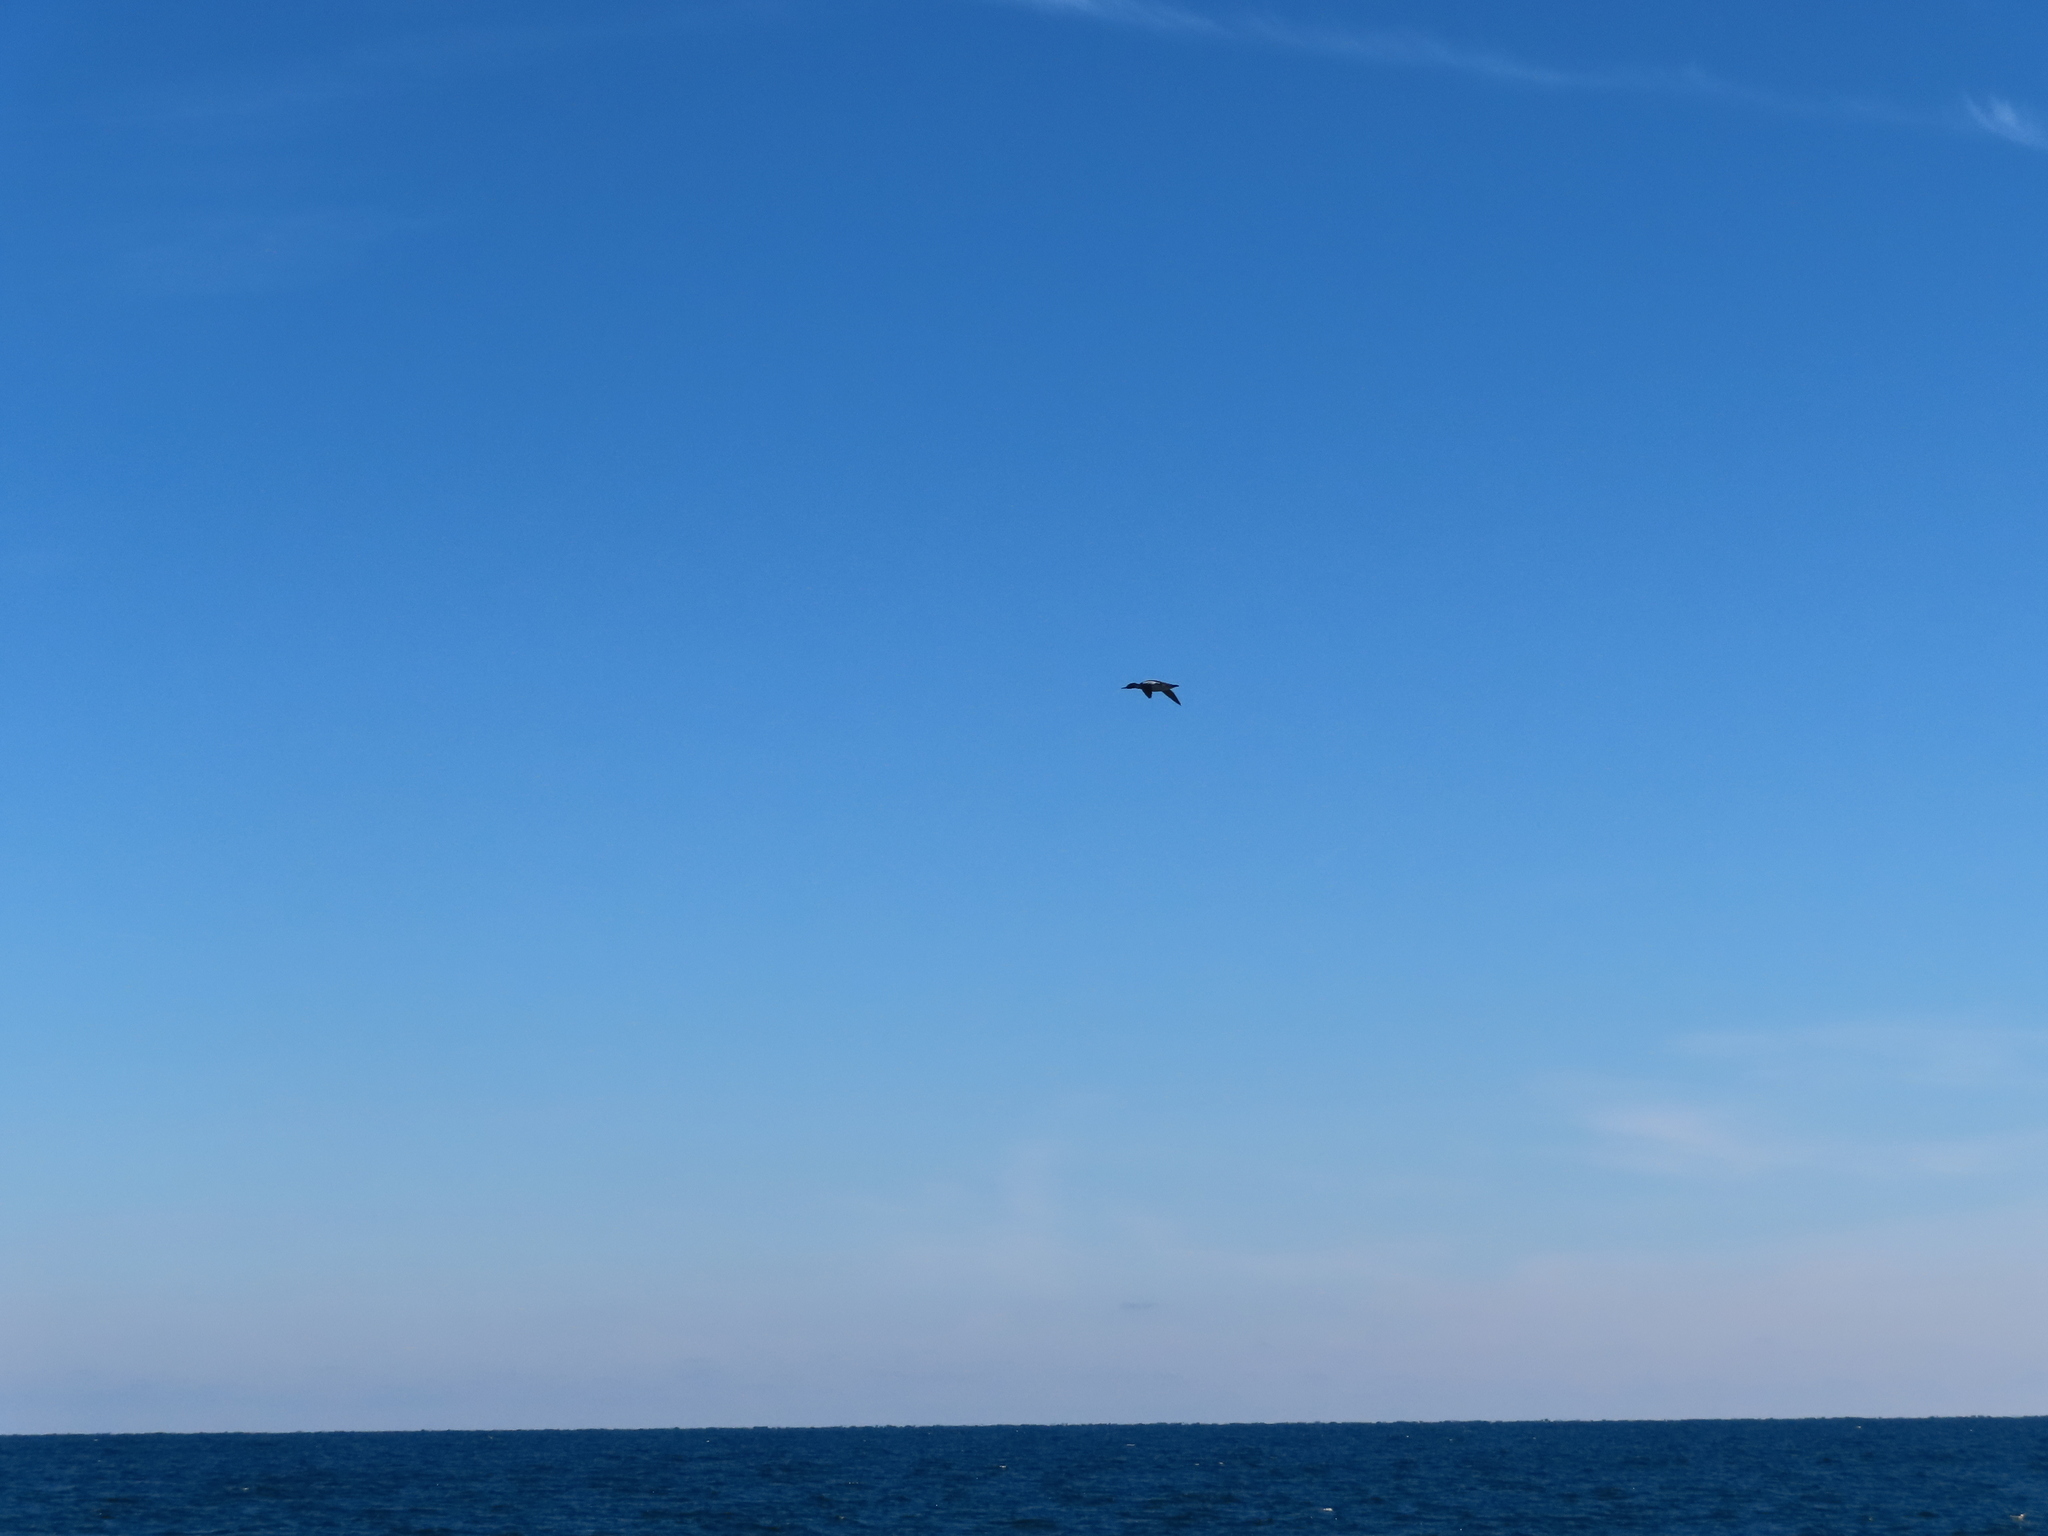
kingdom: Animalia
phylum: Chordata
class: Aves
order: Anseriformes
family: Anatidae
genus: Mergus
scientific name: Mergus serrator
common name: Red-breasted merganser
